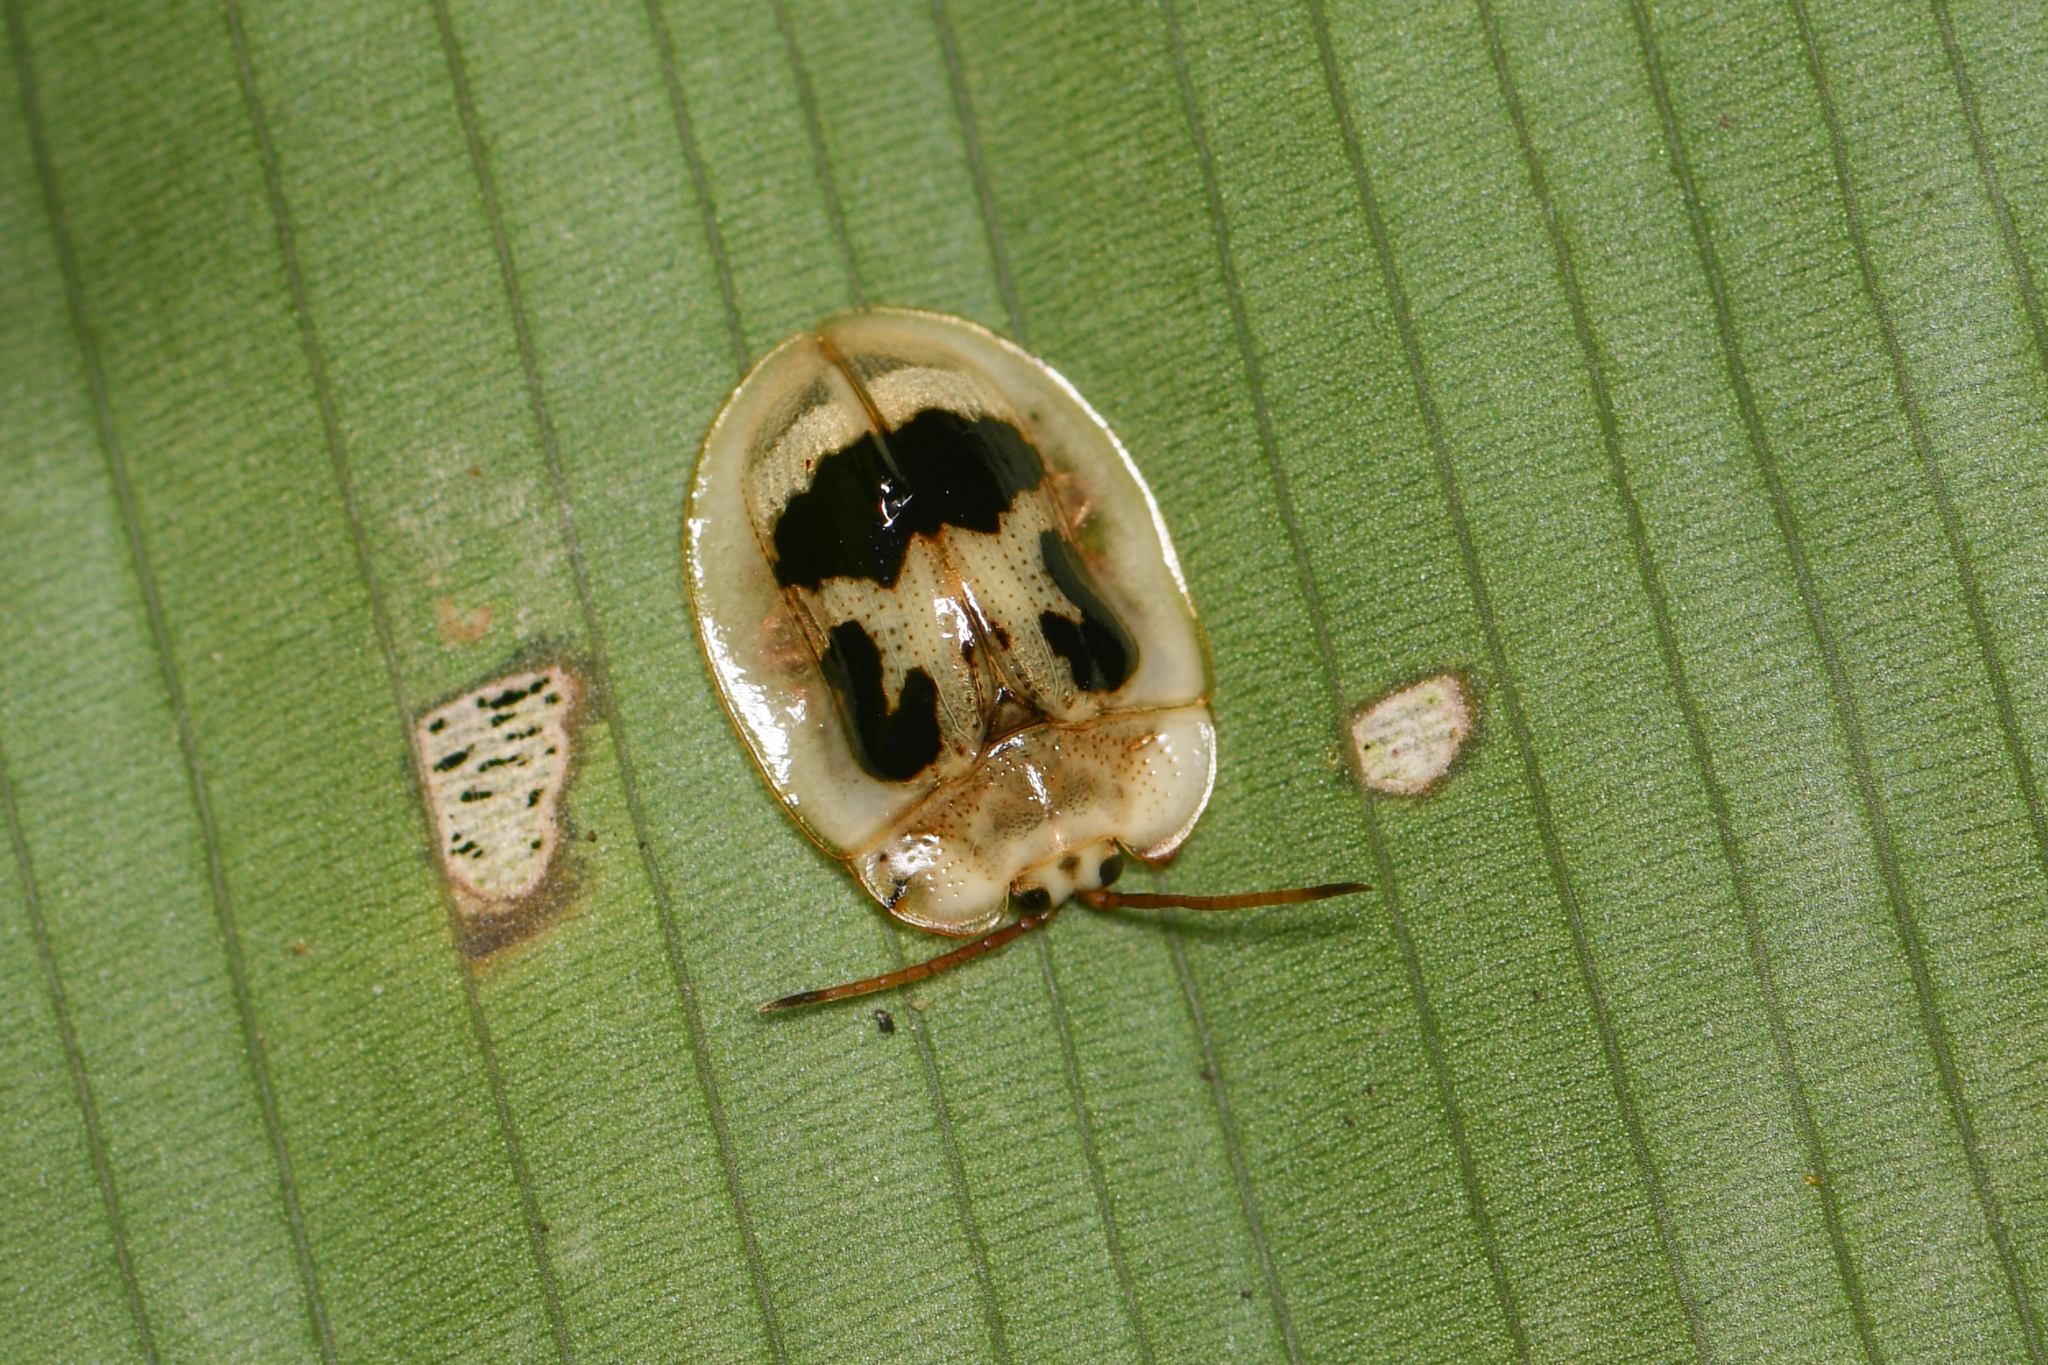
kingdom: Animalia
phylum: Arthropoda
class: Insecta
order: Coleoptera
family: Chrysomelidae
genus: Aslamidium
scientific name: Aslamidium impurum
